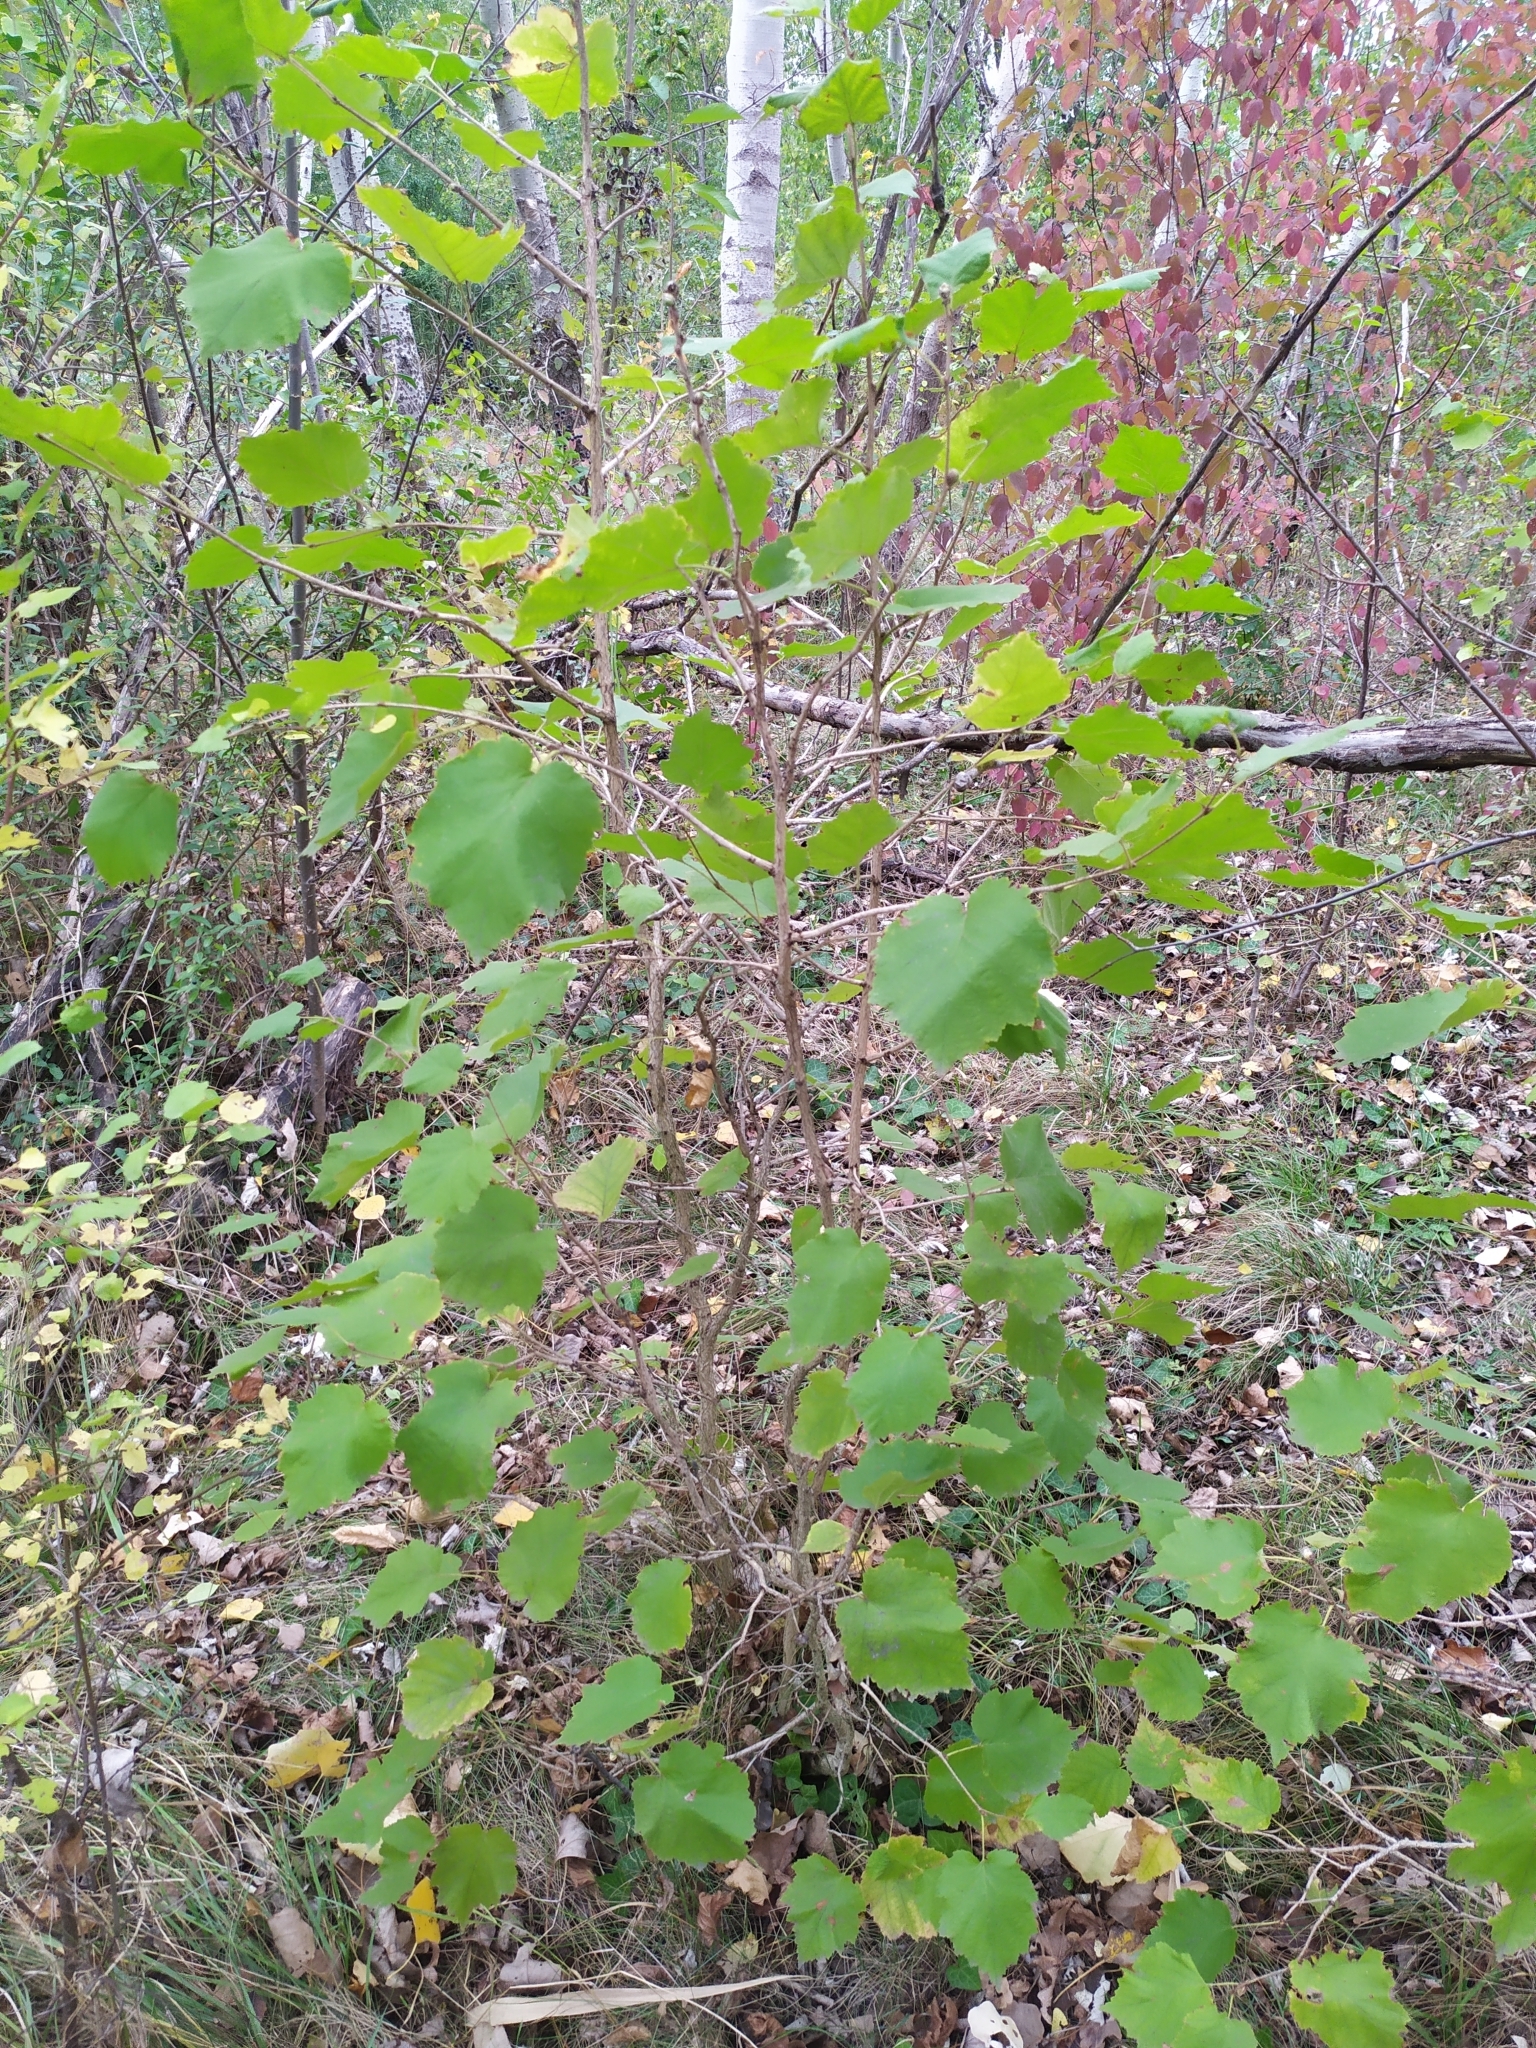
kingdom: Plantae
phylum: Tracheophyta
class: Magnoliopsida
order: Fagales
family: Betulaceae
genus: Corylus
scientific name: Corylus colurna
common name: Turkish hazel
